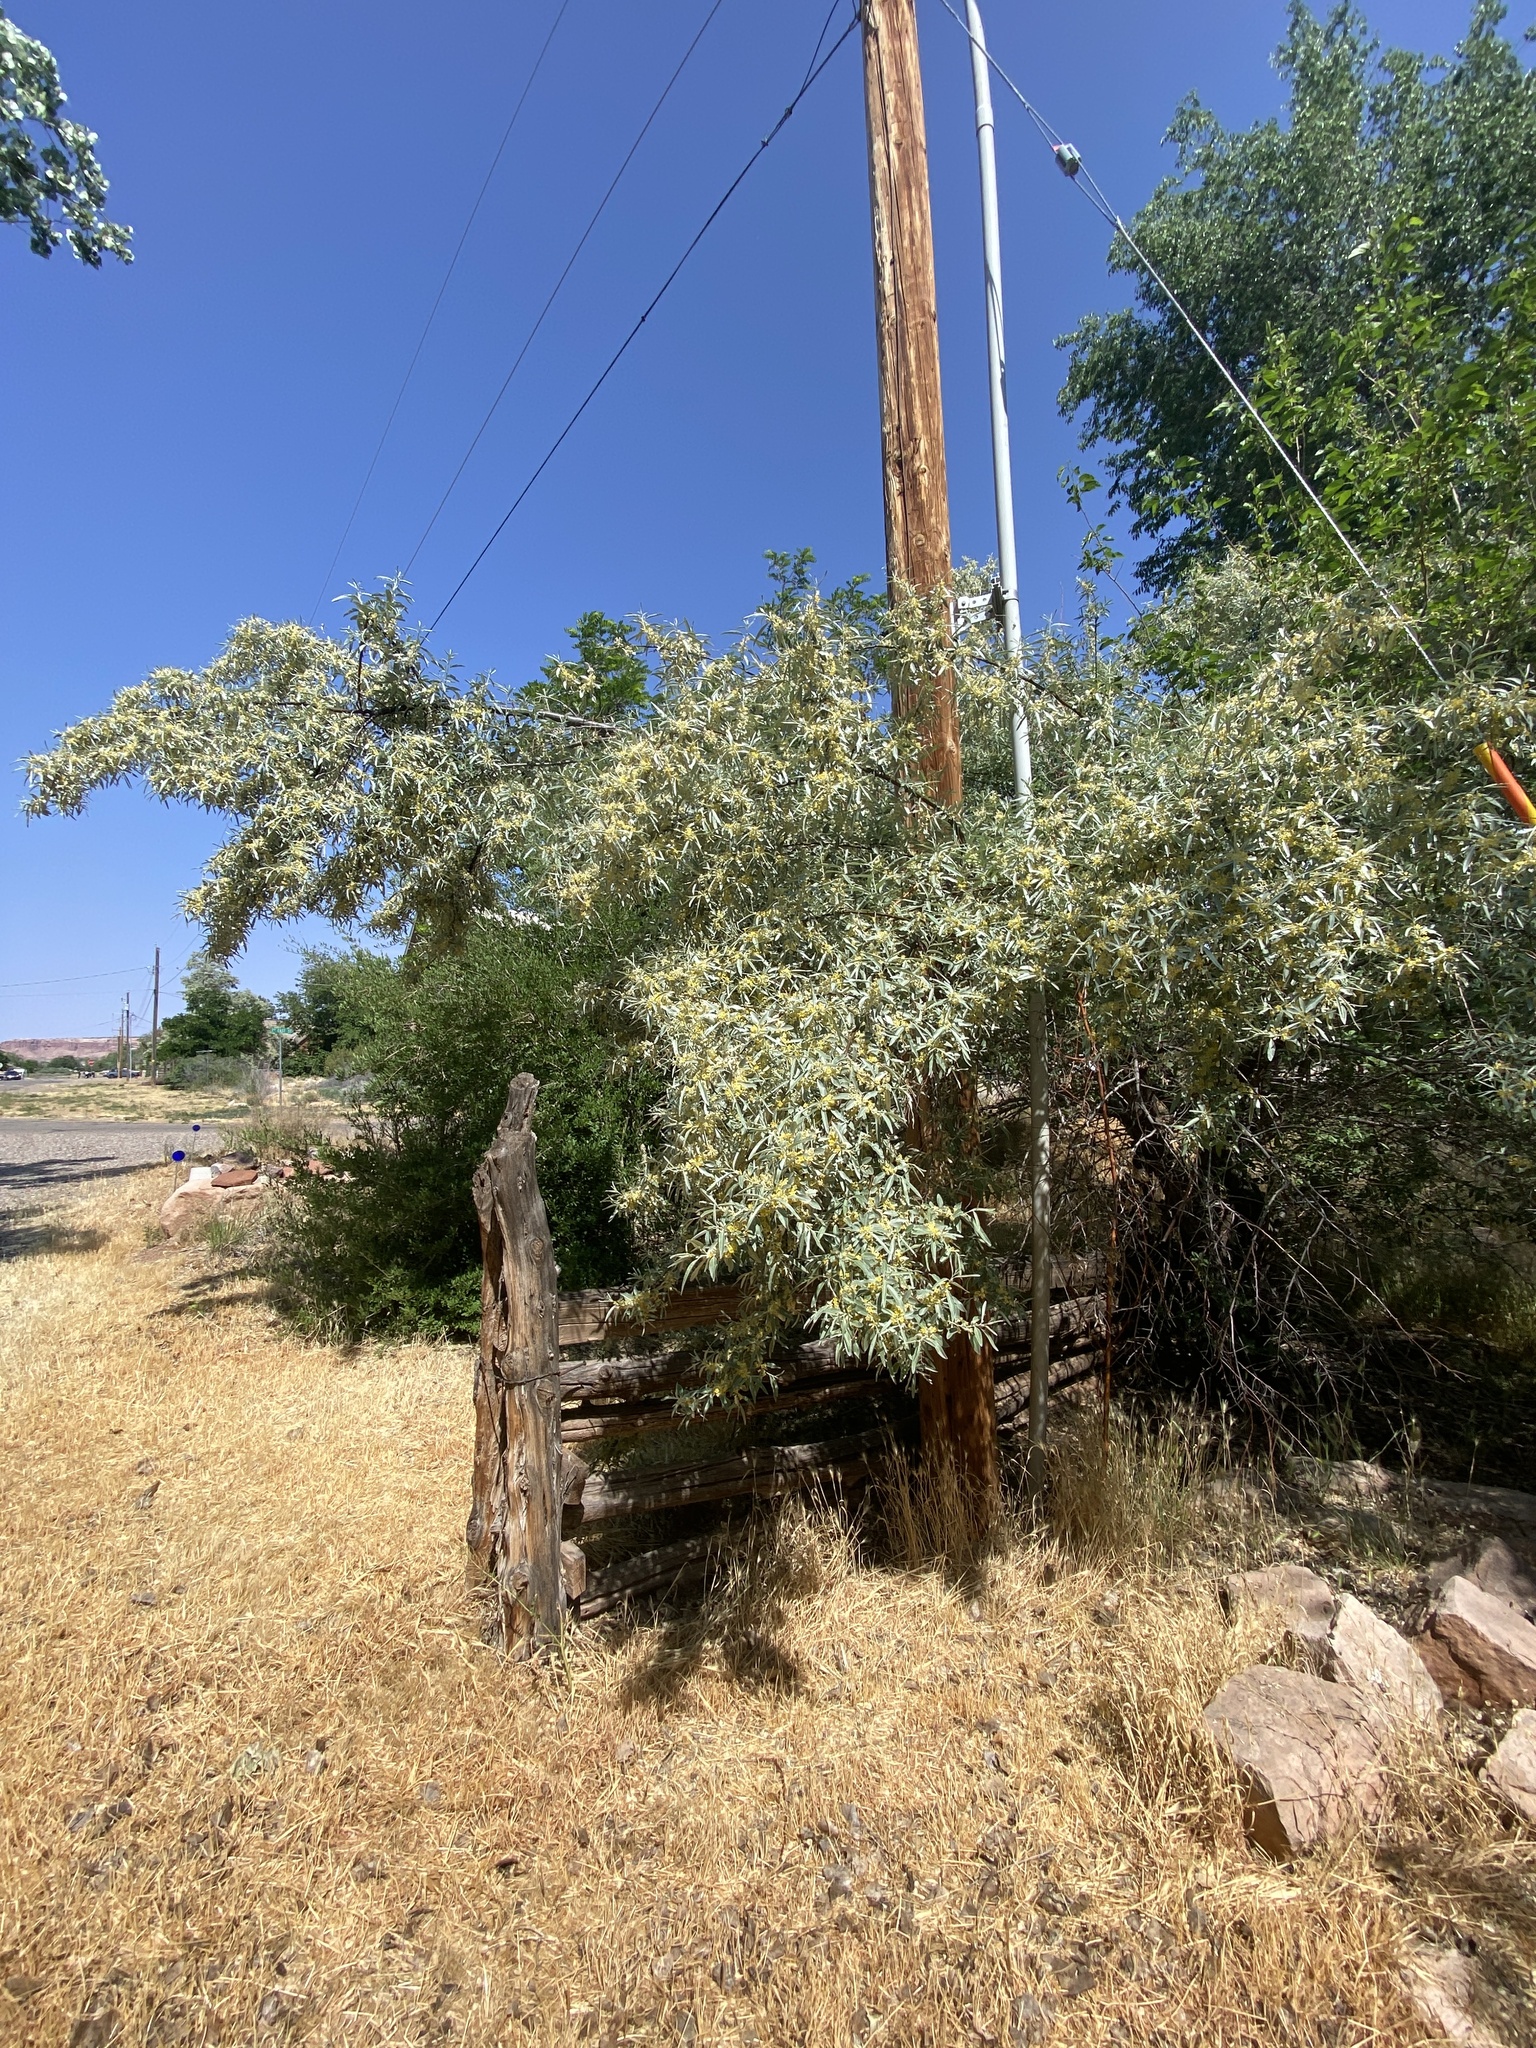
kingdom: Plantae
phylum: Tracheophyta
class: Magnoliopsida
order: Rosales
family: Elaeagnaceae
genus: Elaeagnus
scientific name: Elaeagnus angustifolia
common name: Russian olive
